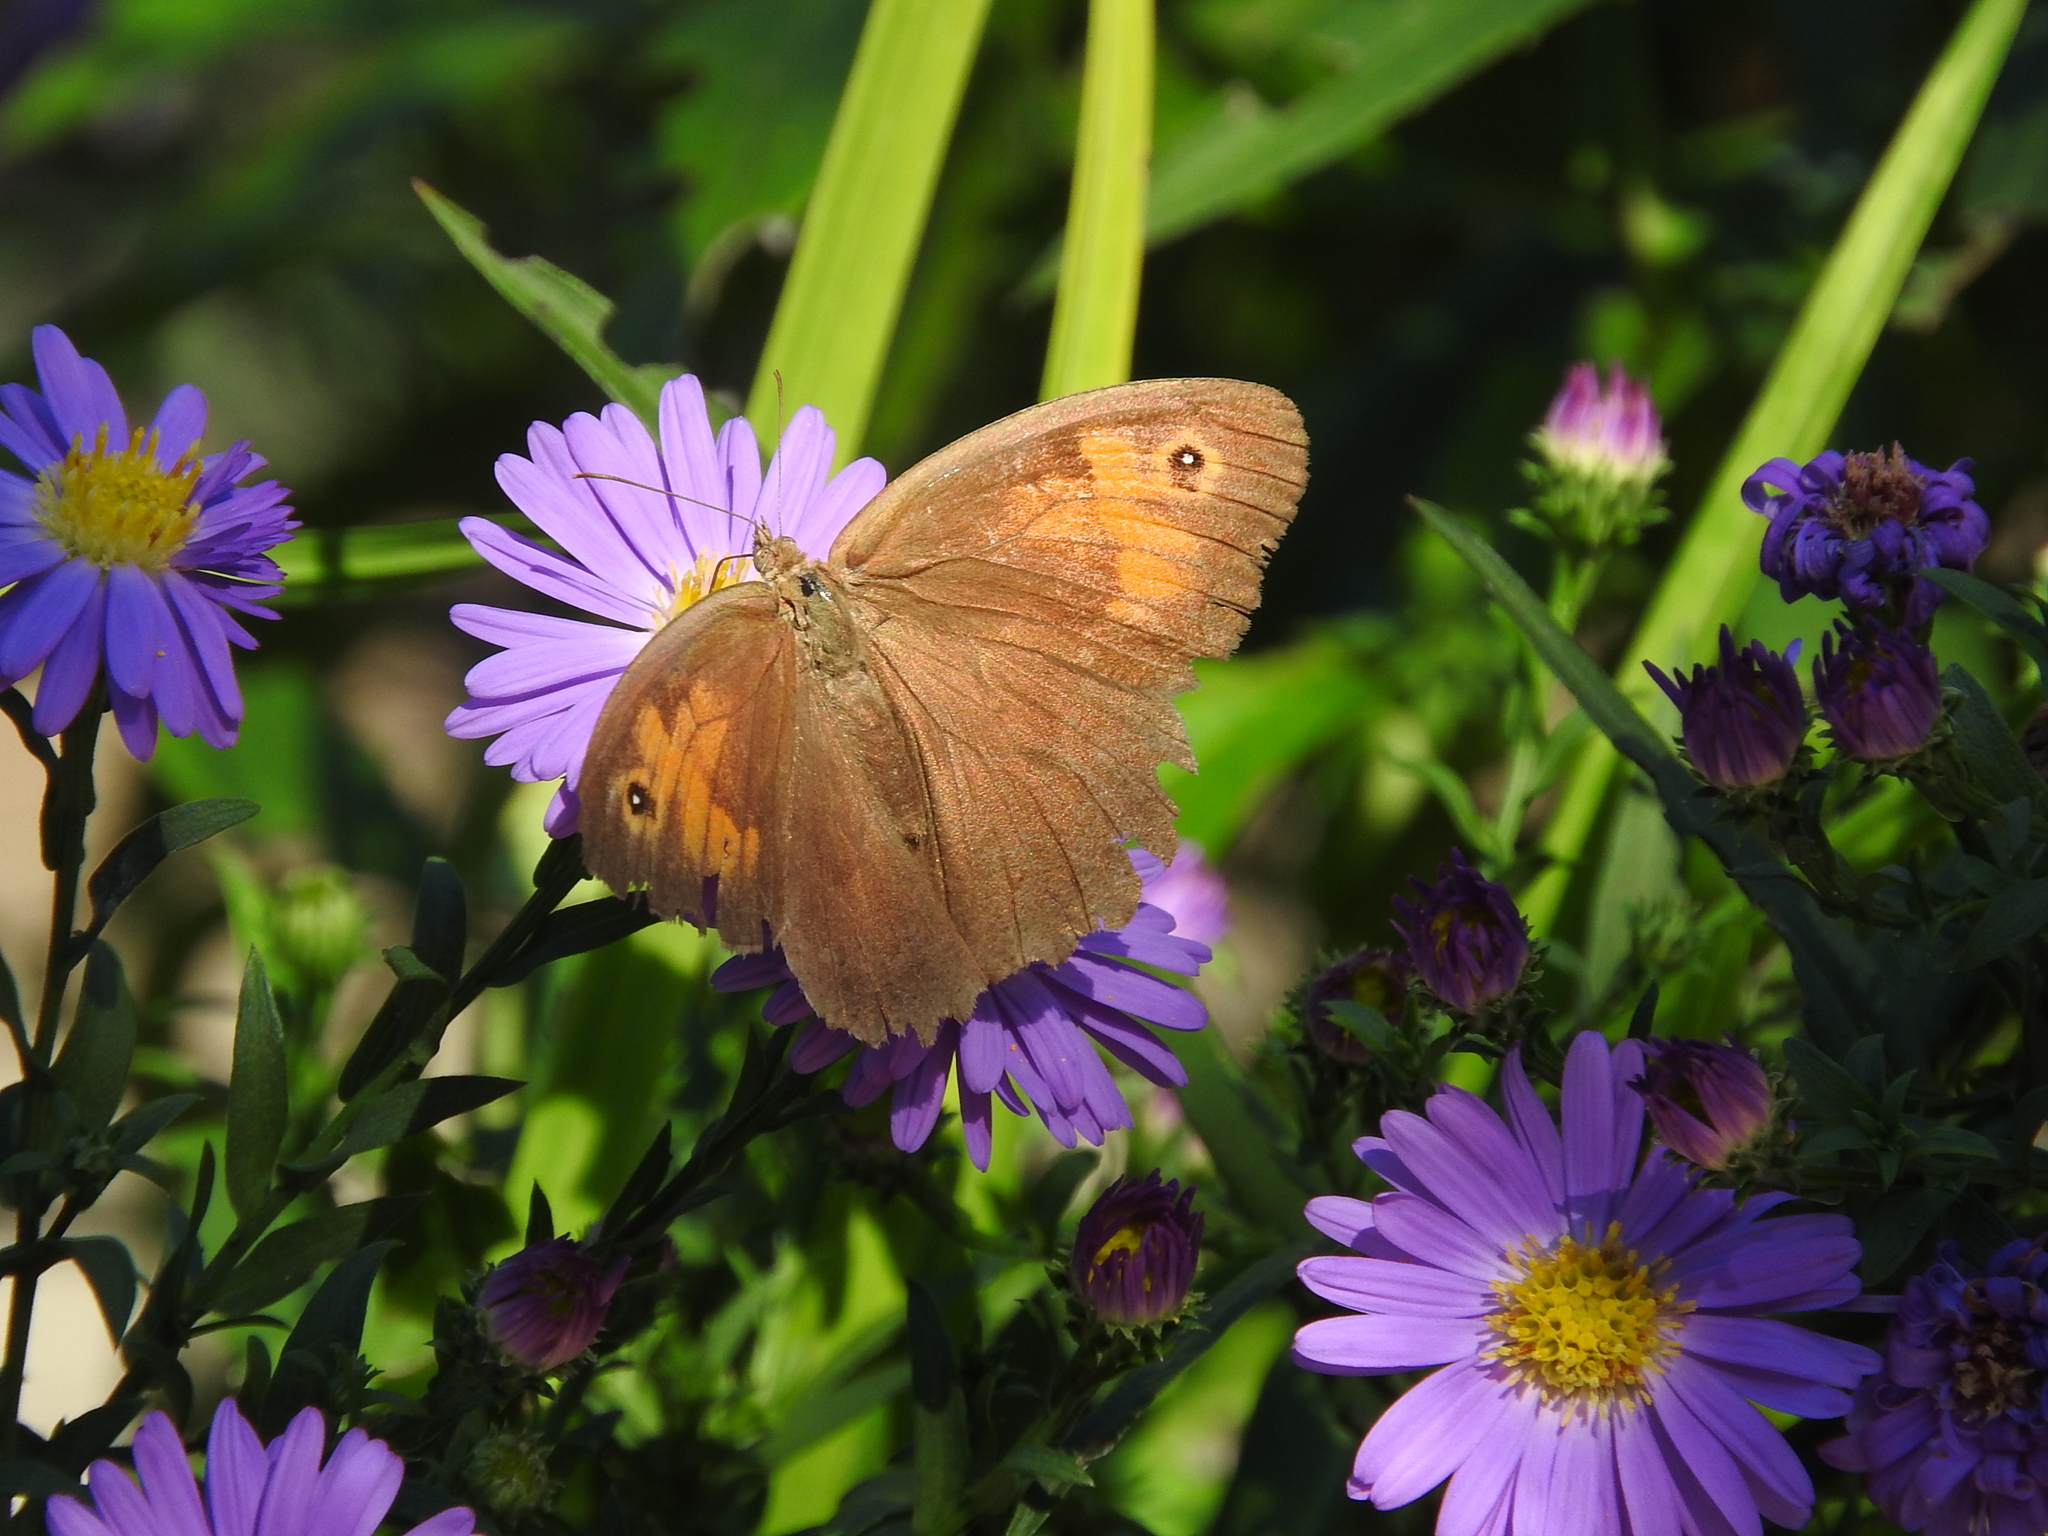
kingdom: Animalia
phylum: Arthropoda
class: Insecta
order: Lepidoptera
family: Nymphalidae
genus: Maniola
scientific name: Maniola jurtina
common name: Meadow brown
